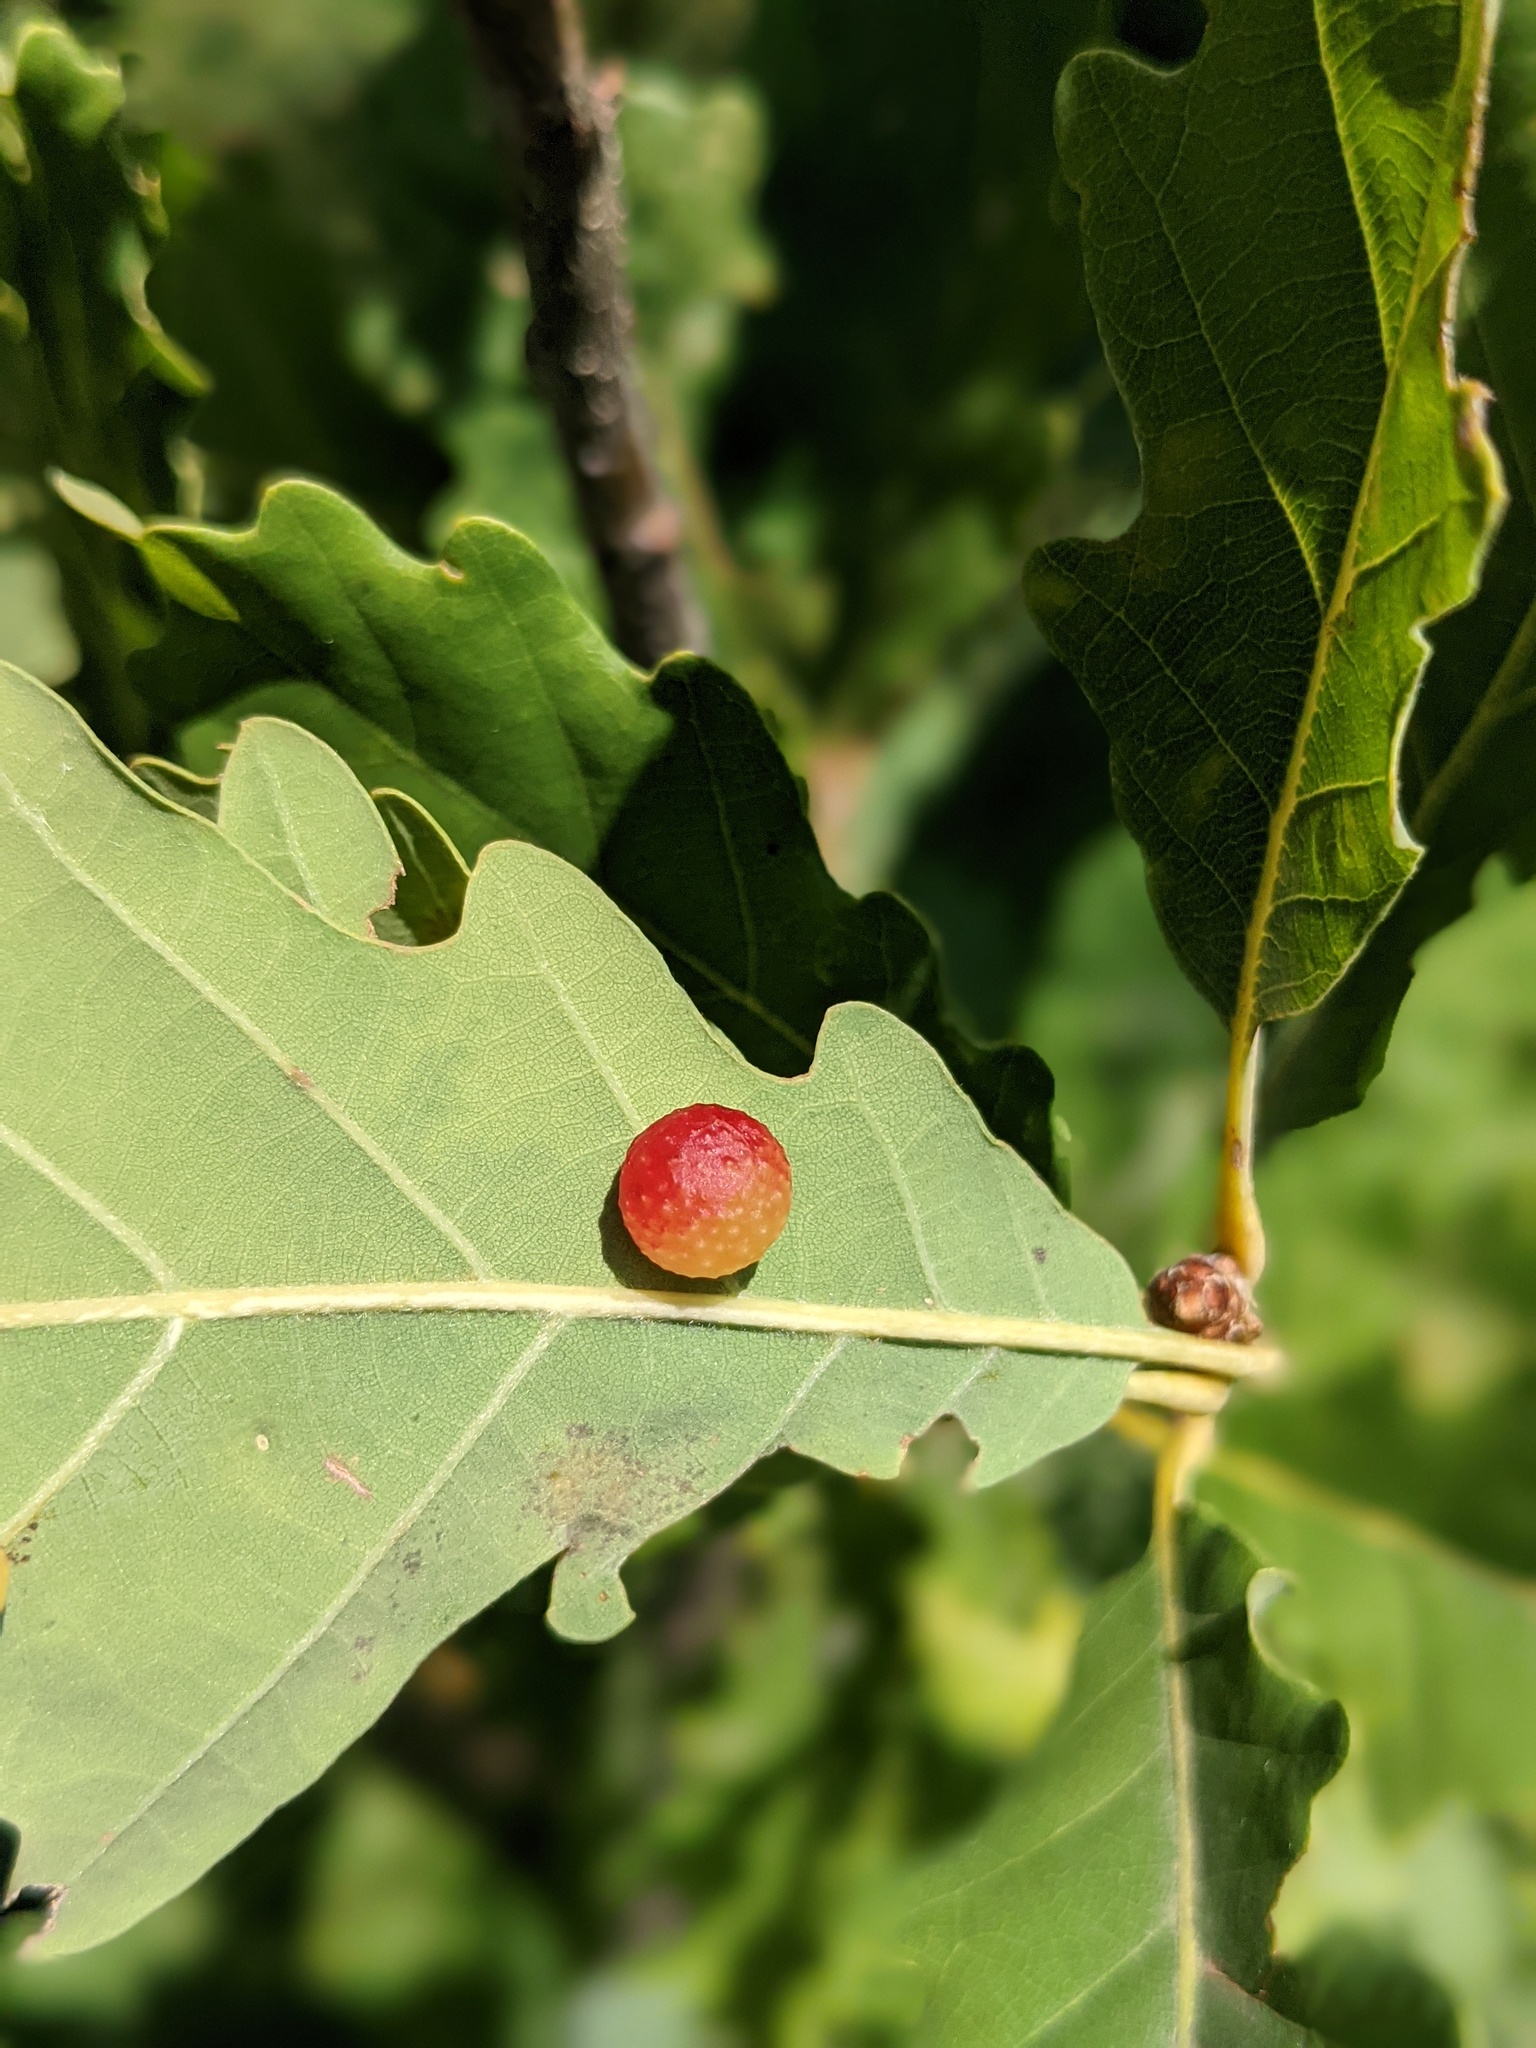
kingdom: Animalia
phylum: Arthropoda
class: Insecta
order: Hymenoptera
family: Cynipidae
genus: Cynips
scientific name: Cynips quercusfolii
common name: Cherry gall
